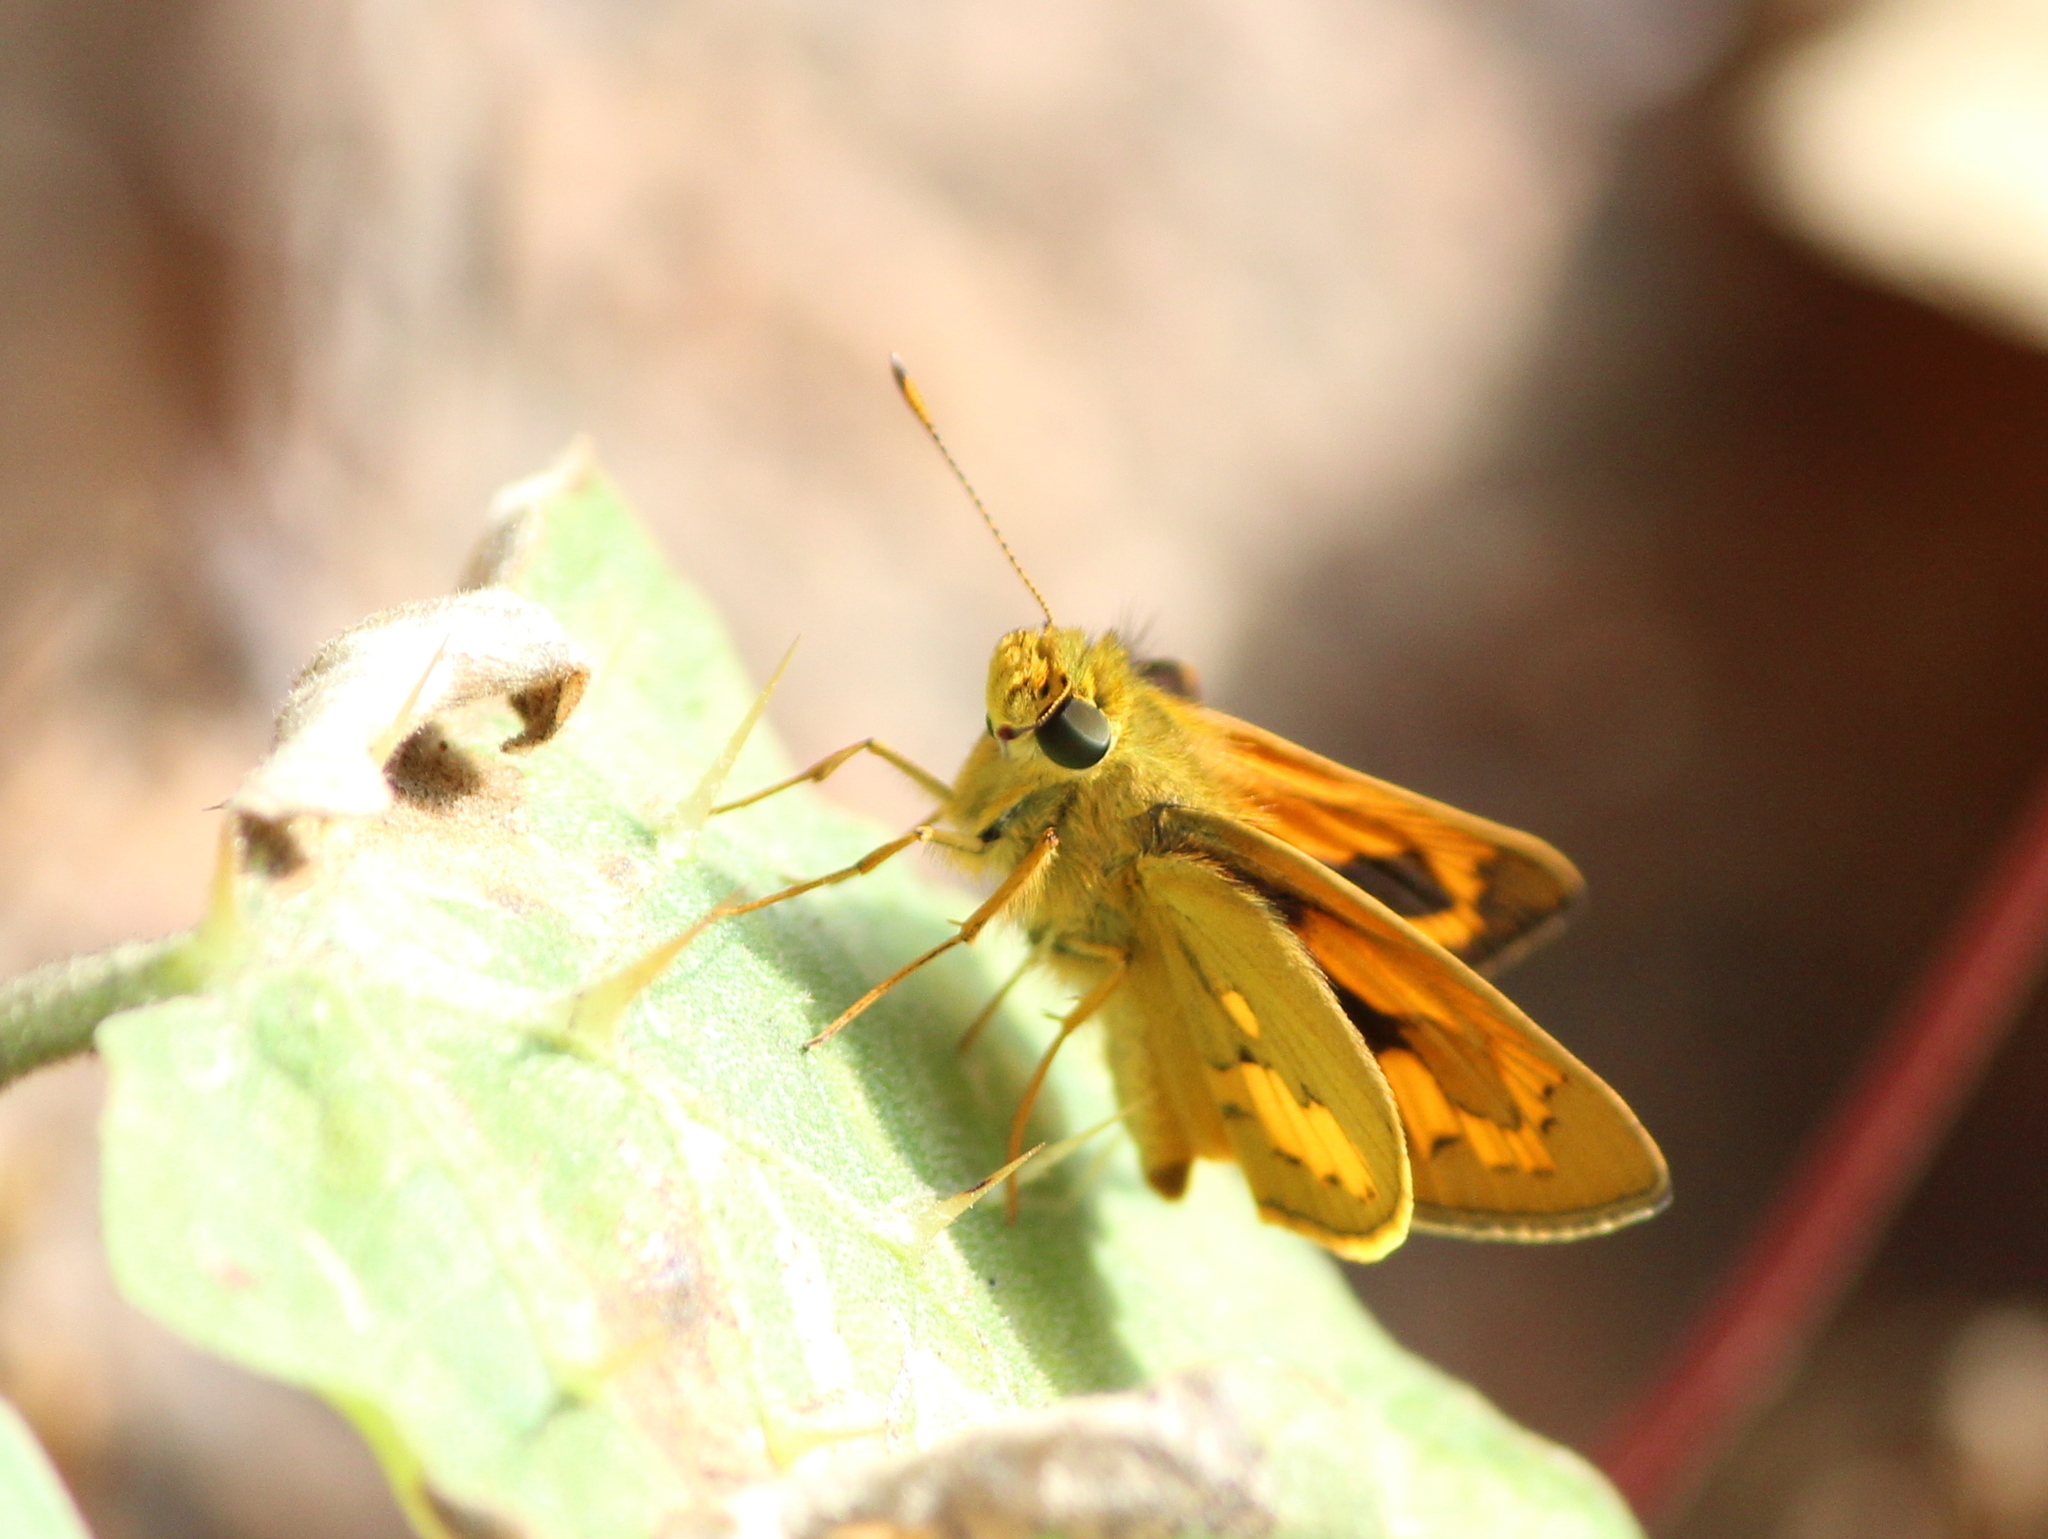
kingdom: Animalia
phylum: Arthropoda
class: Insecta
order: Lepidoptera
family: Hesperiidae
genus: Telicota
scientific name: Telicota bambusae
